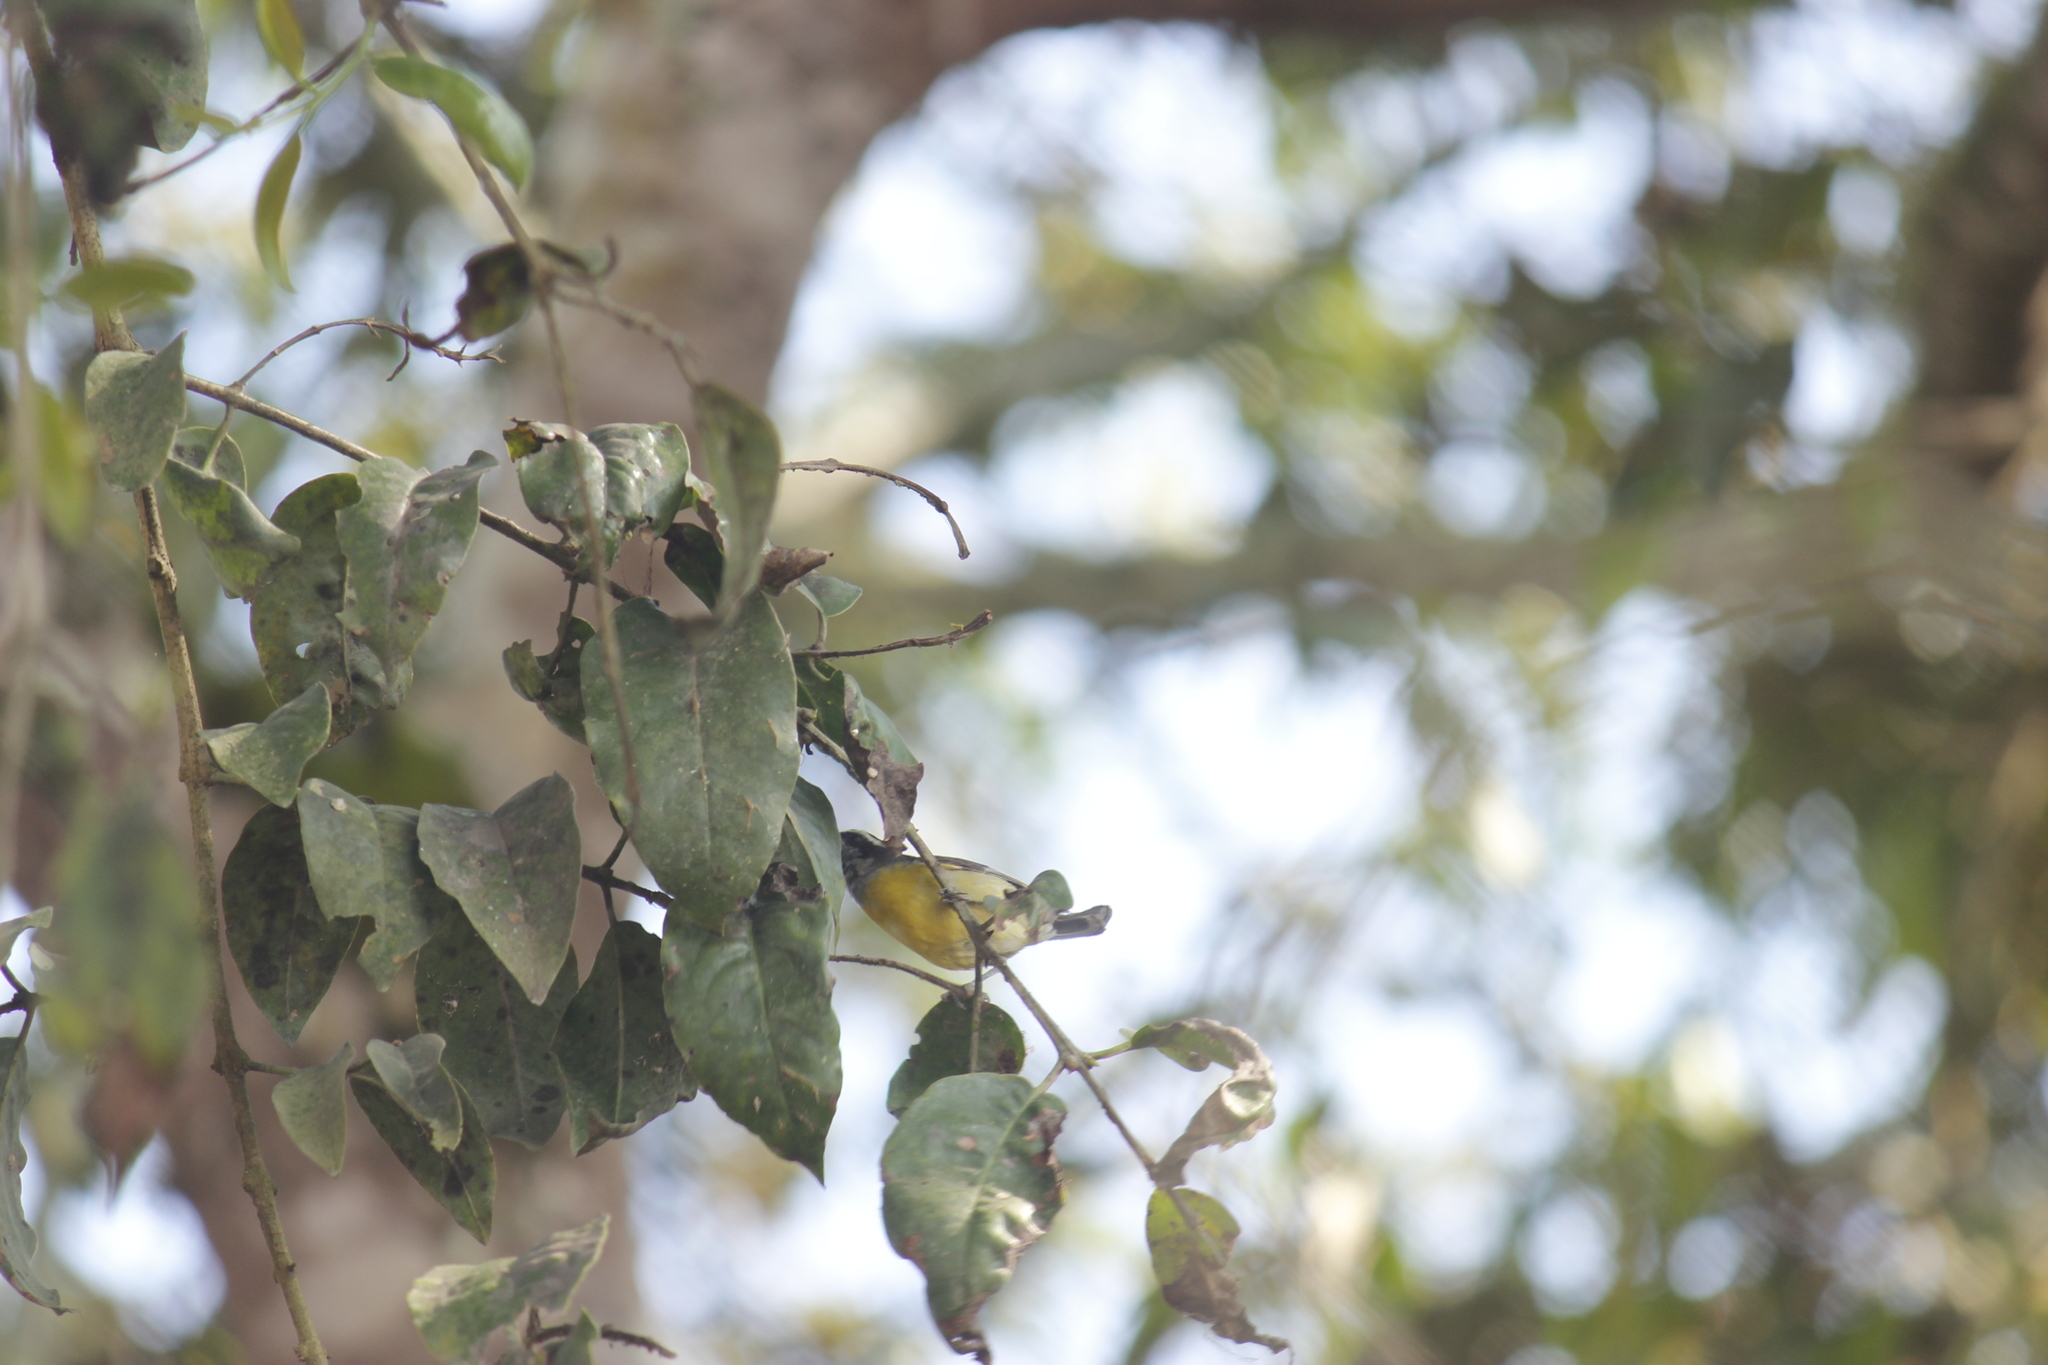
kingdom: Animalia
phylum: Chordata
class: Aves
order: Passeriformes
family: Thraupidae
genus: Coereba
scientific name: Coereba flaveola
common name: Bananaquit
